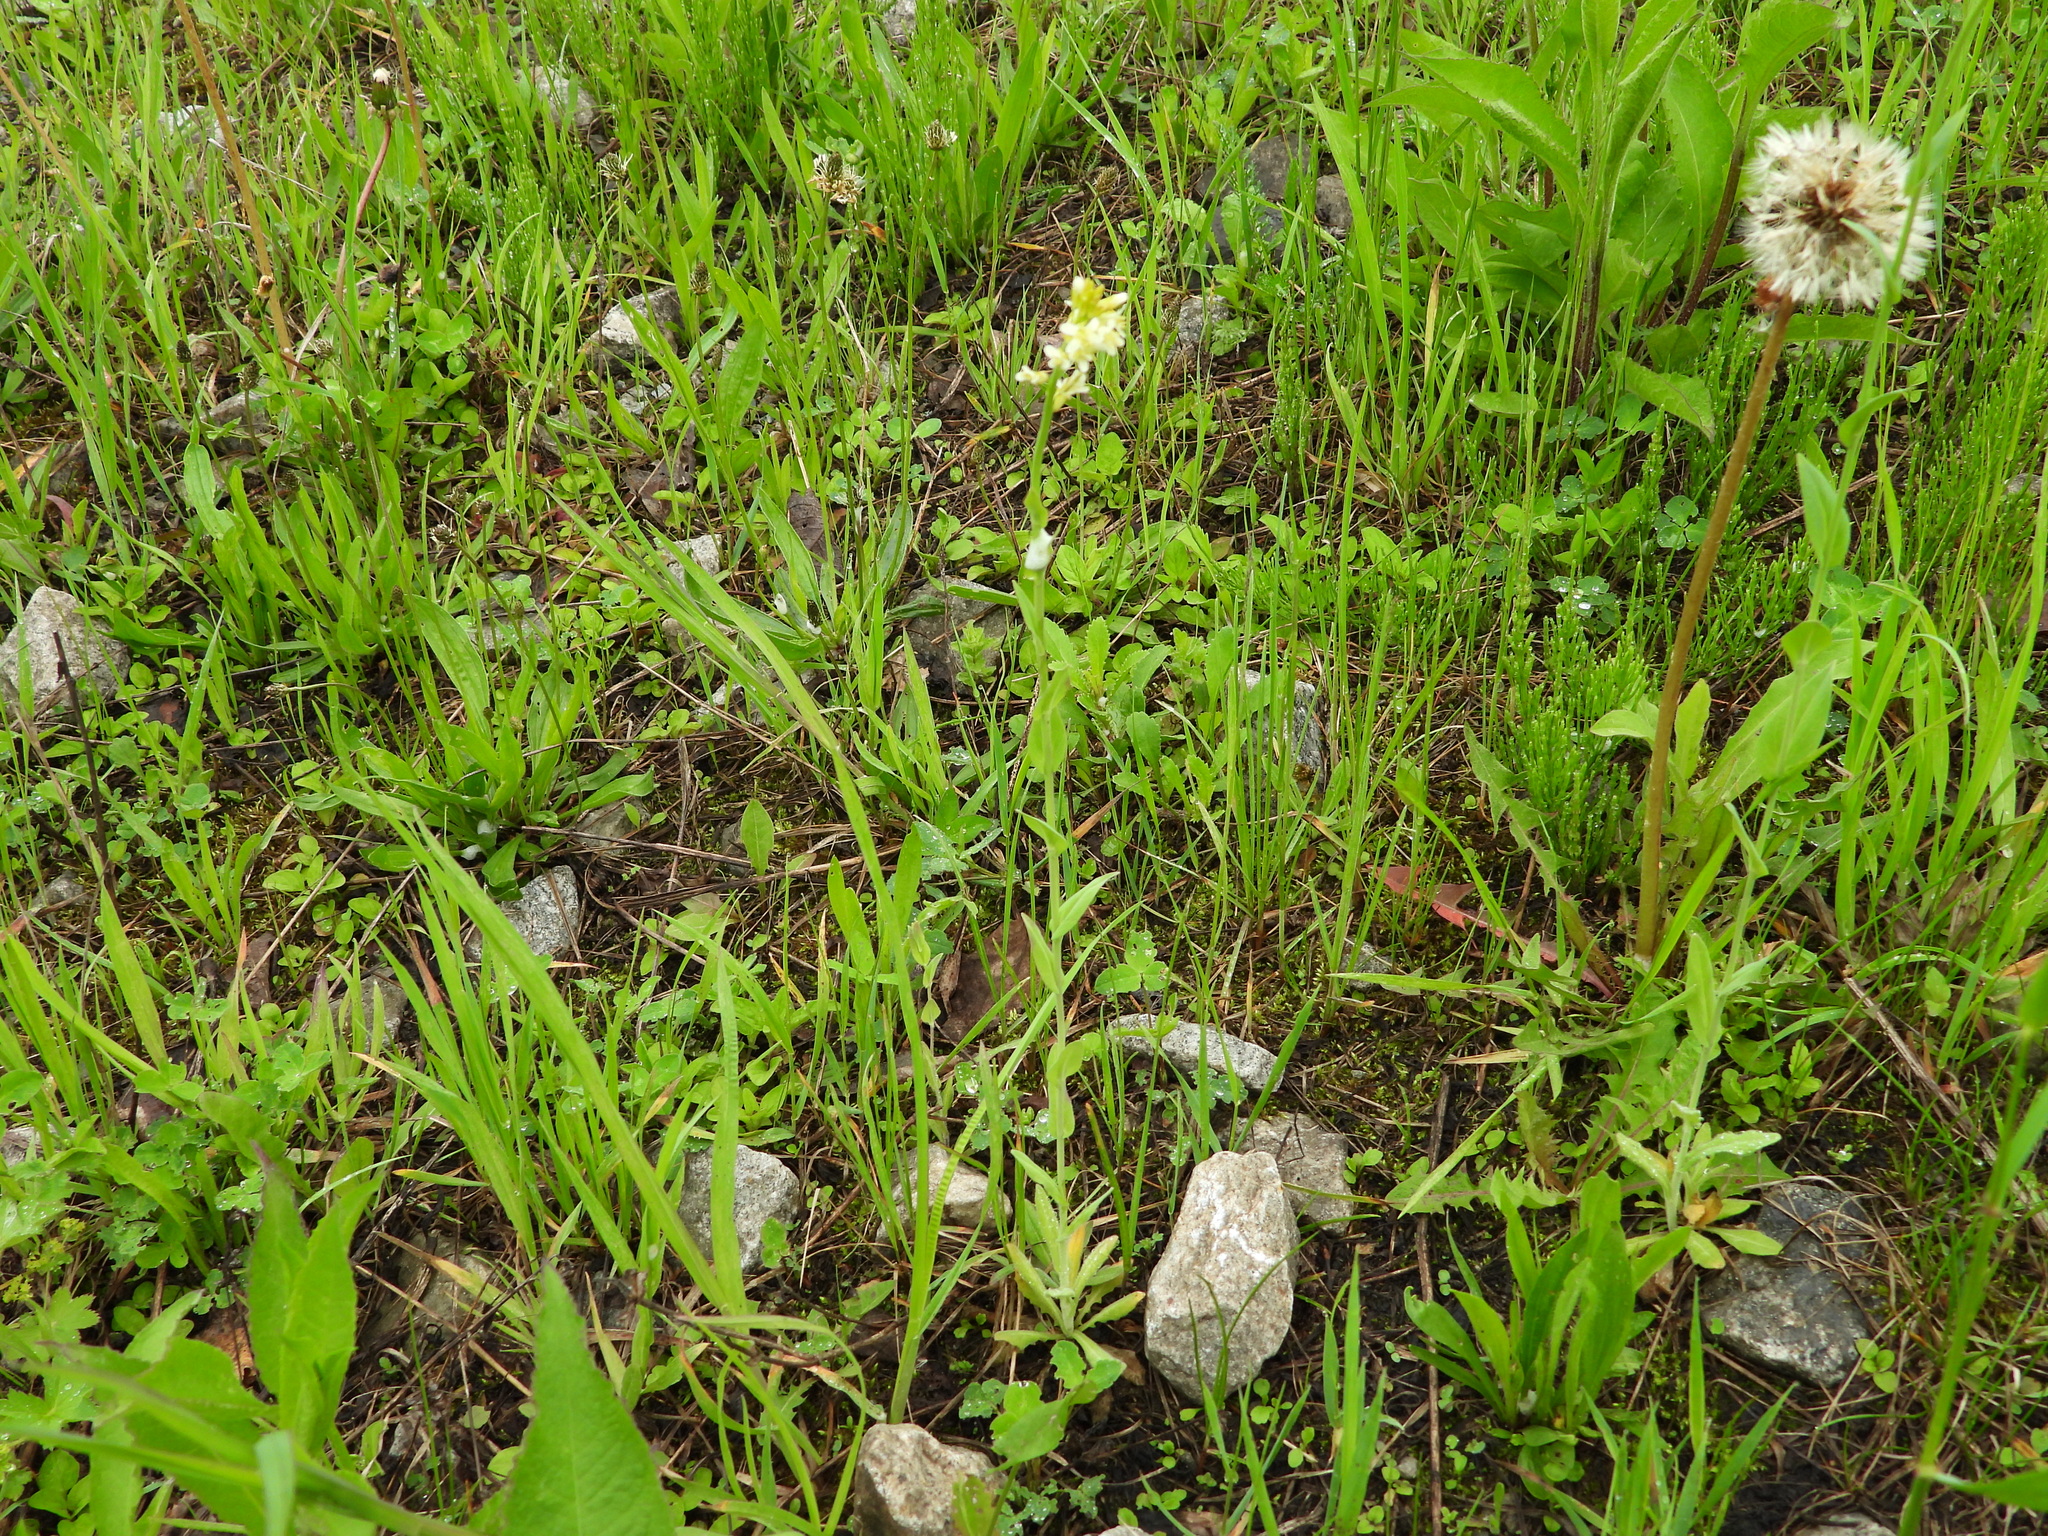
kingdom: Plantae
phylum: Tracheophyta
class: Magnoliopsida
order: Brassicales
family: Brassicaceae
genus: Turritis
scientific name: Turritis glabra
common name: Tower rockcress
